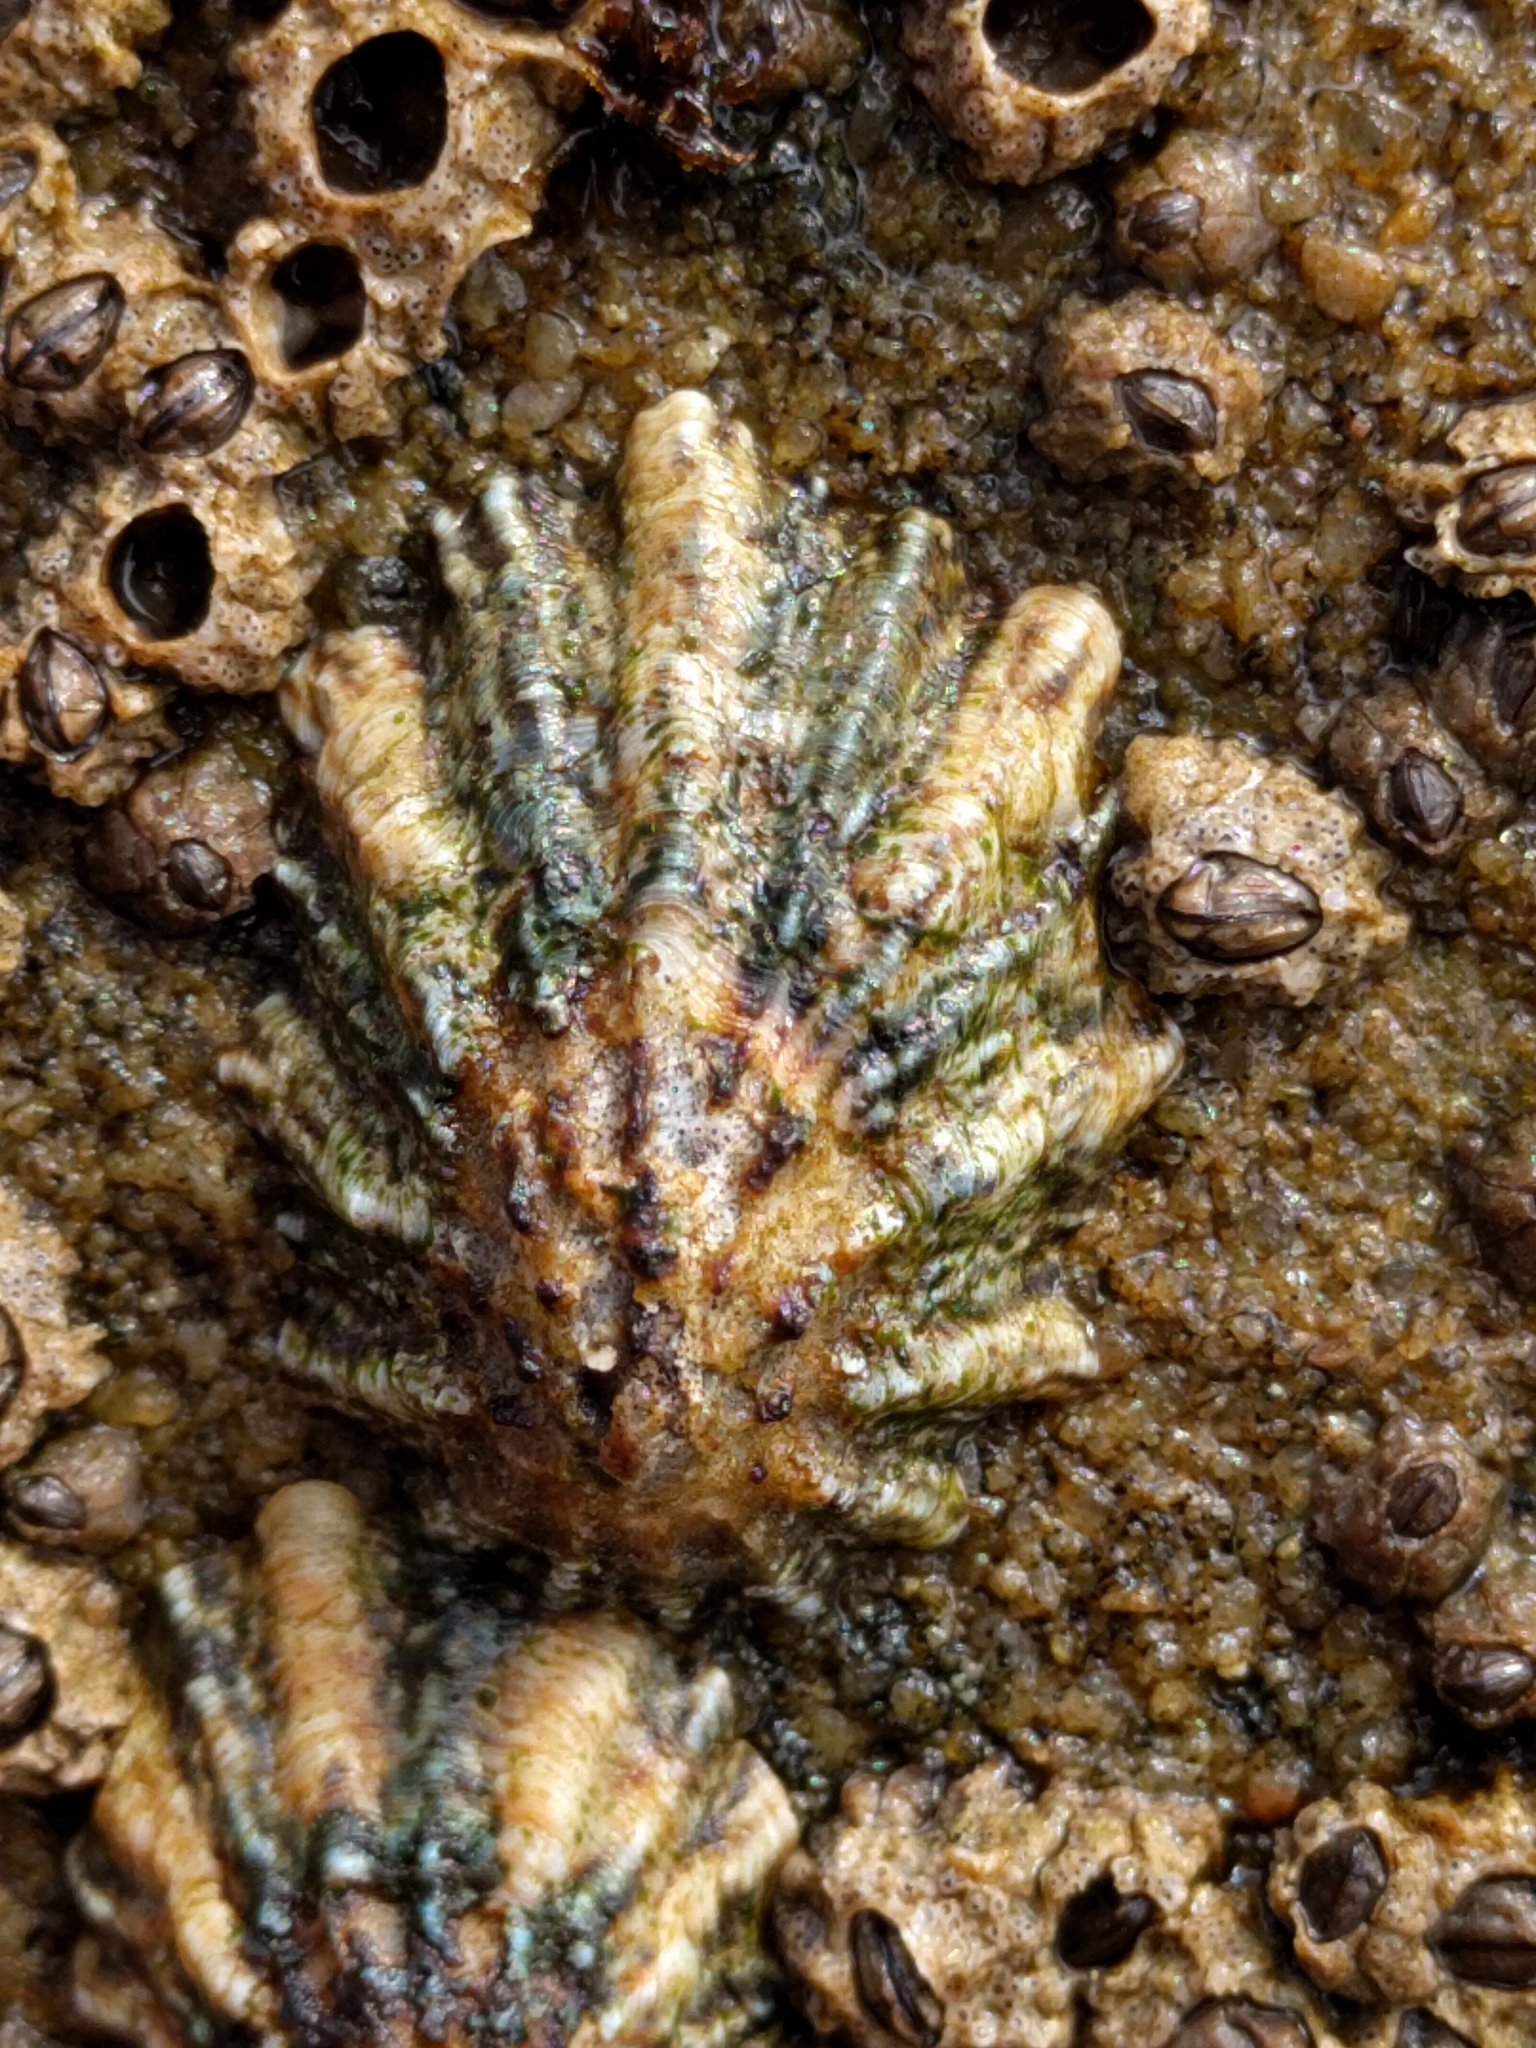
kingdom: Animalia
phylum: Mollusca
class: Gastropoda
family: Lottiidae
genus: Lottia
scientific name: Lottia scabra
